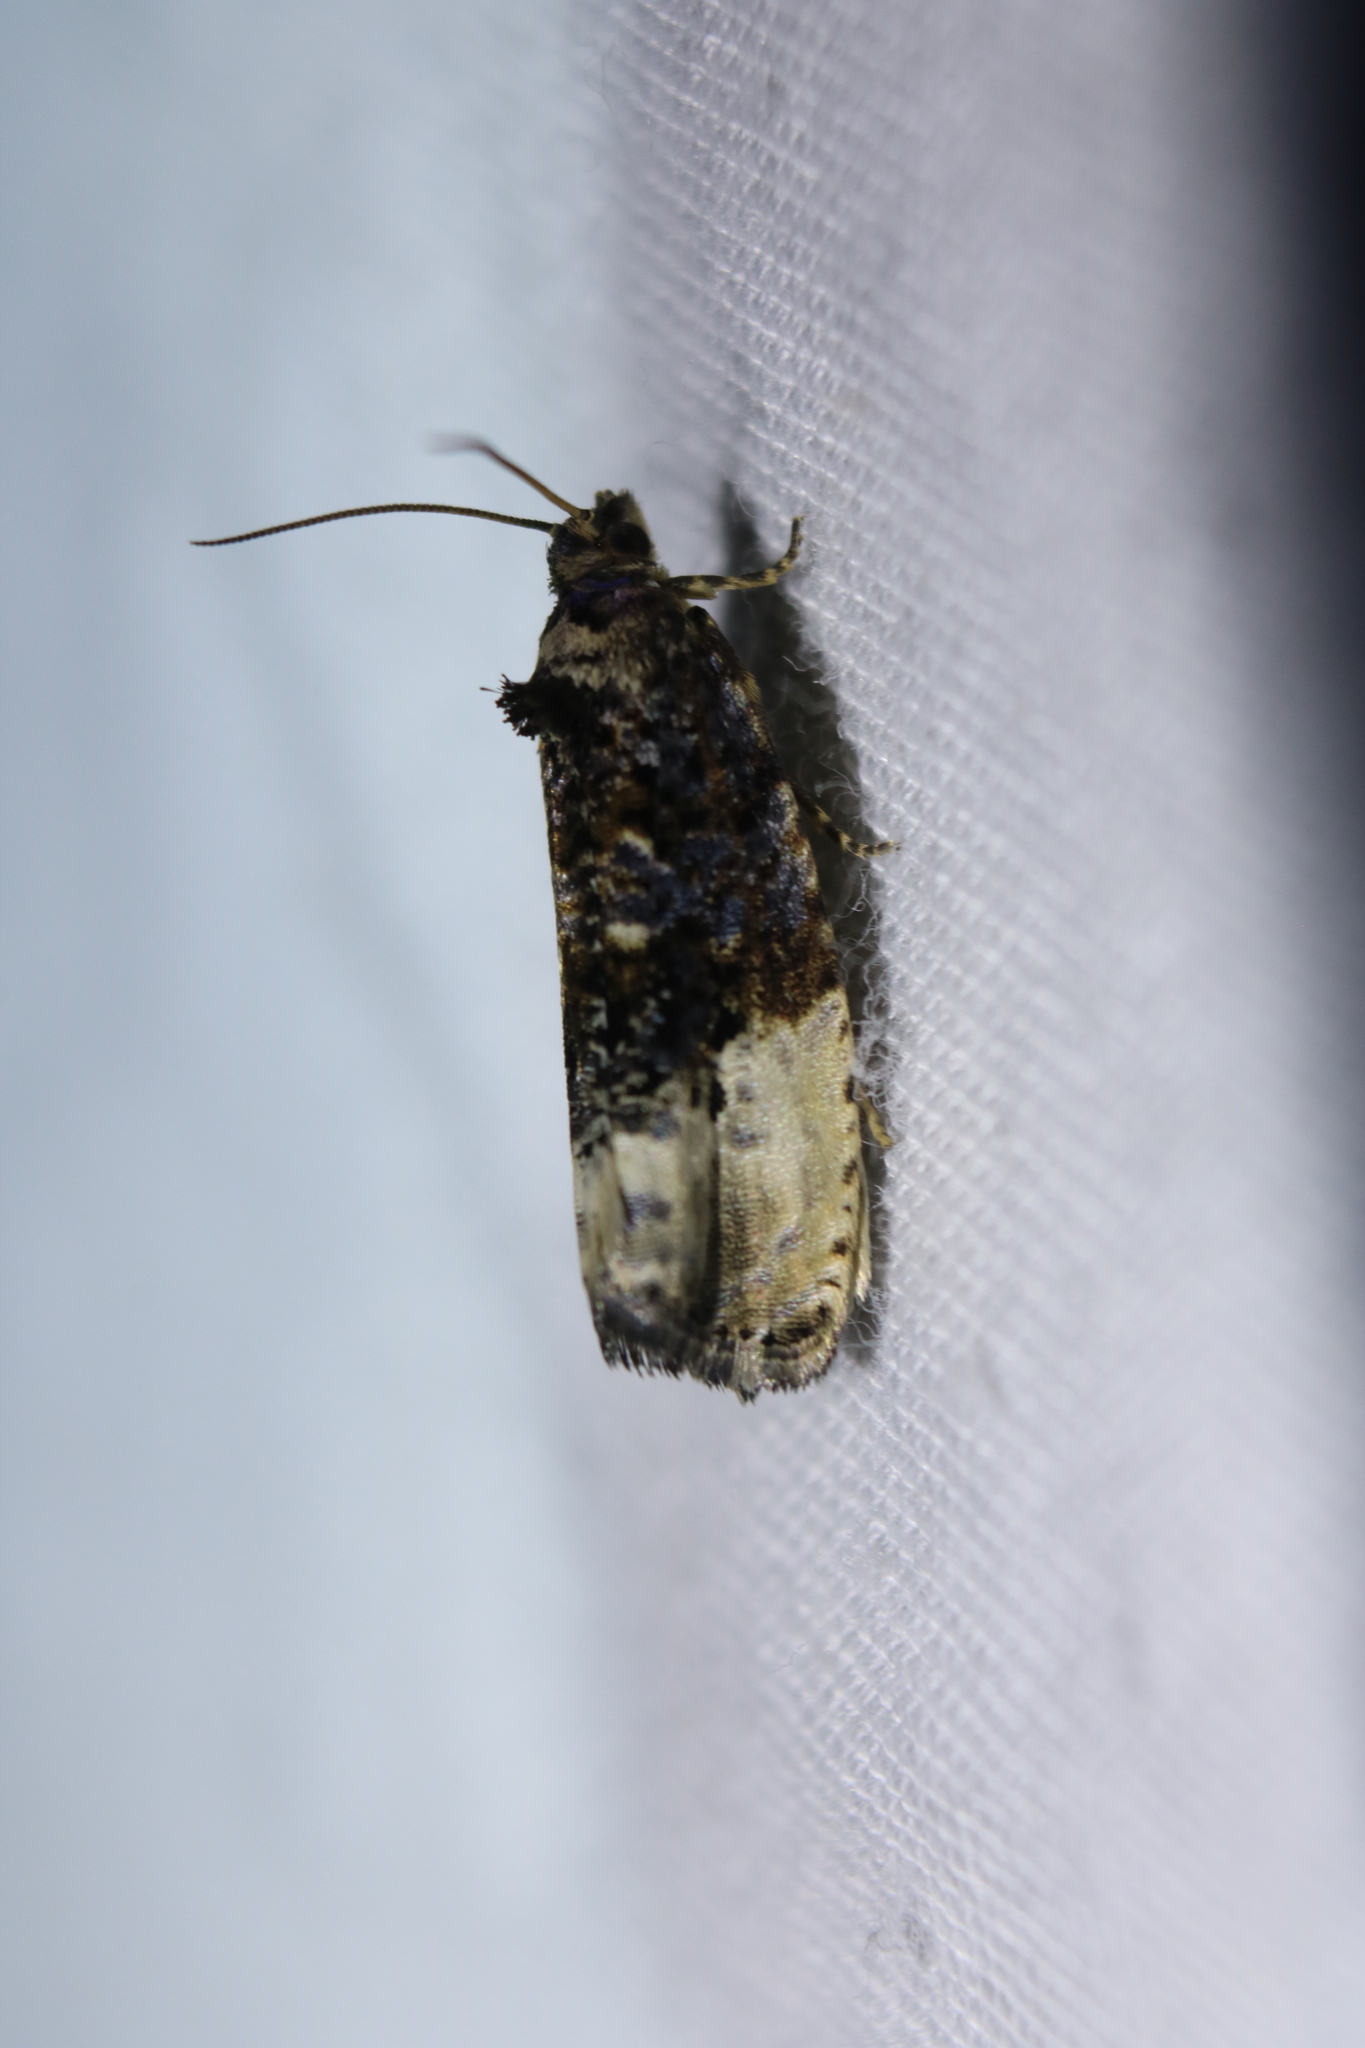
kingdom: Animalia
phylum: Arthropoda
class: Insecta
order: Lepidoptera
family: Tortricidae
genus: Hedya
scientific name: Hedya nubiferana
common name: Marbled orchard tortrix
